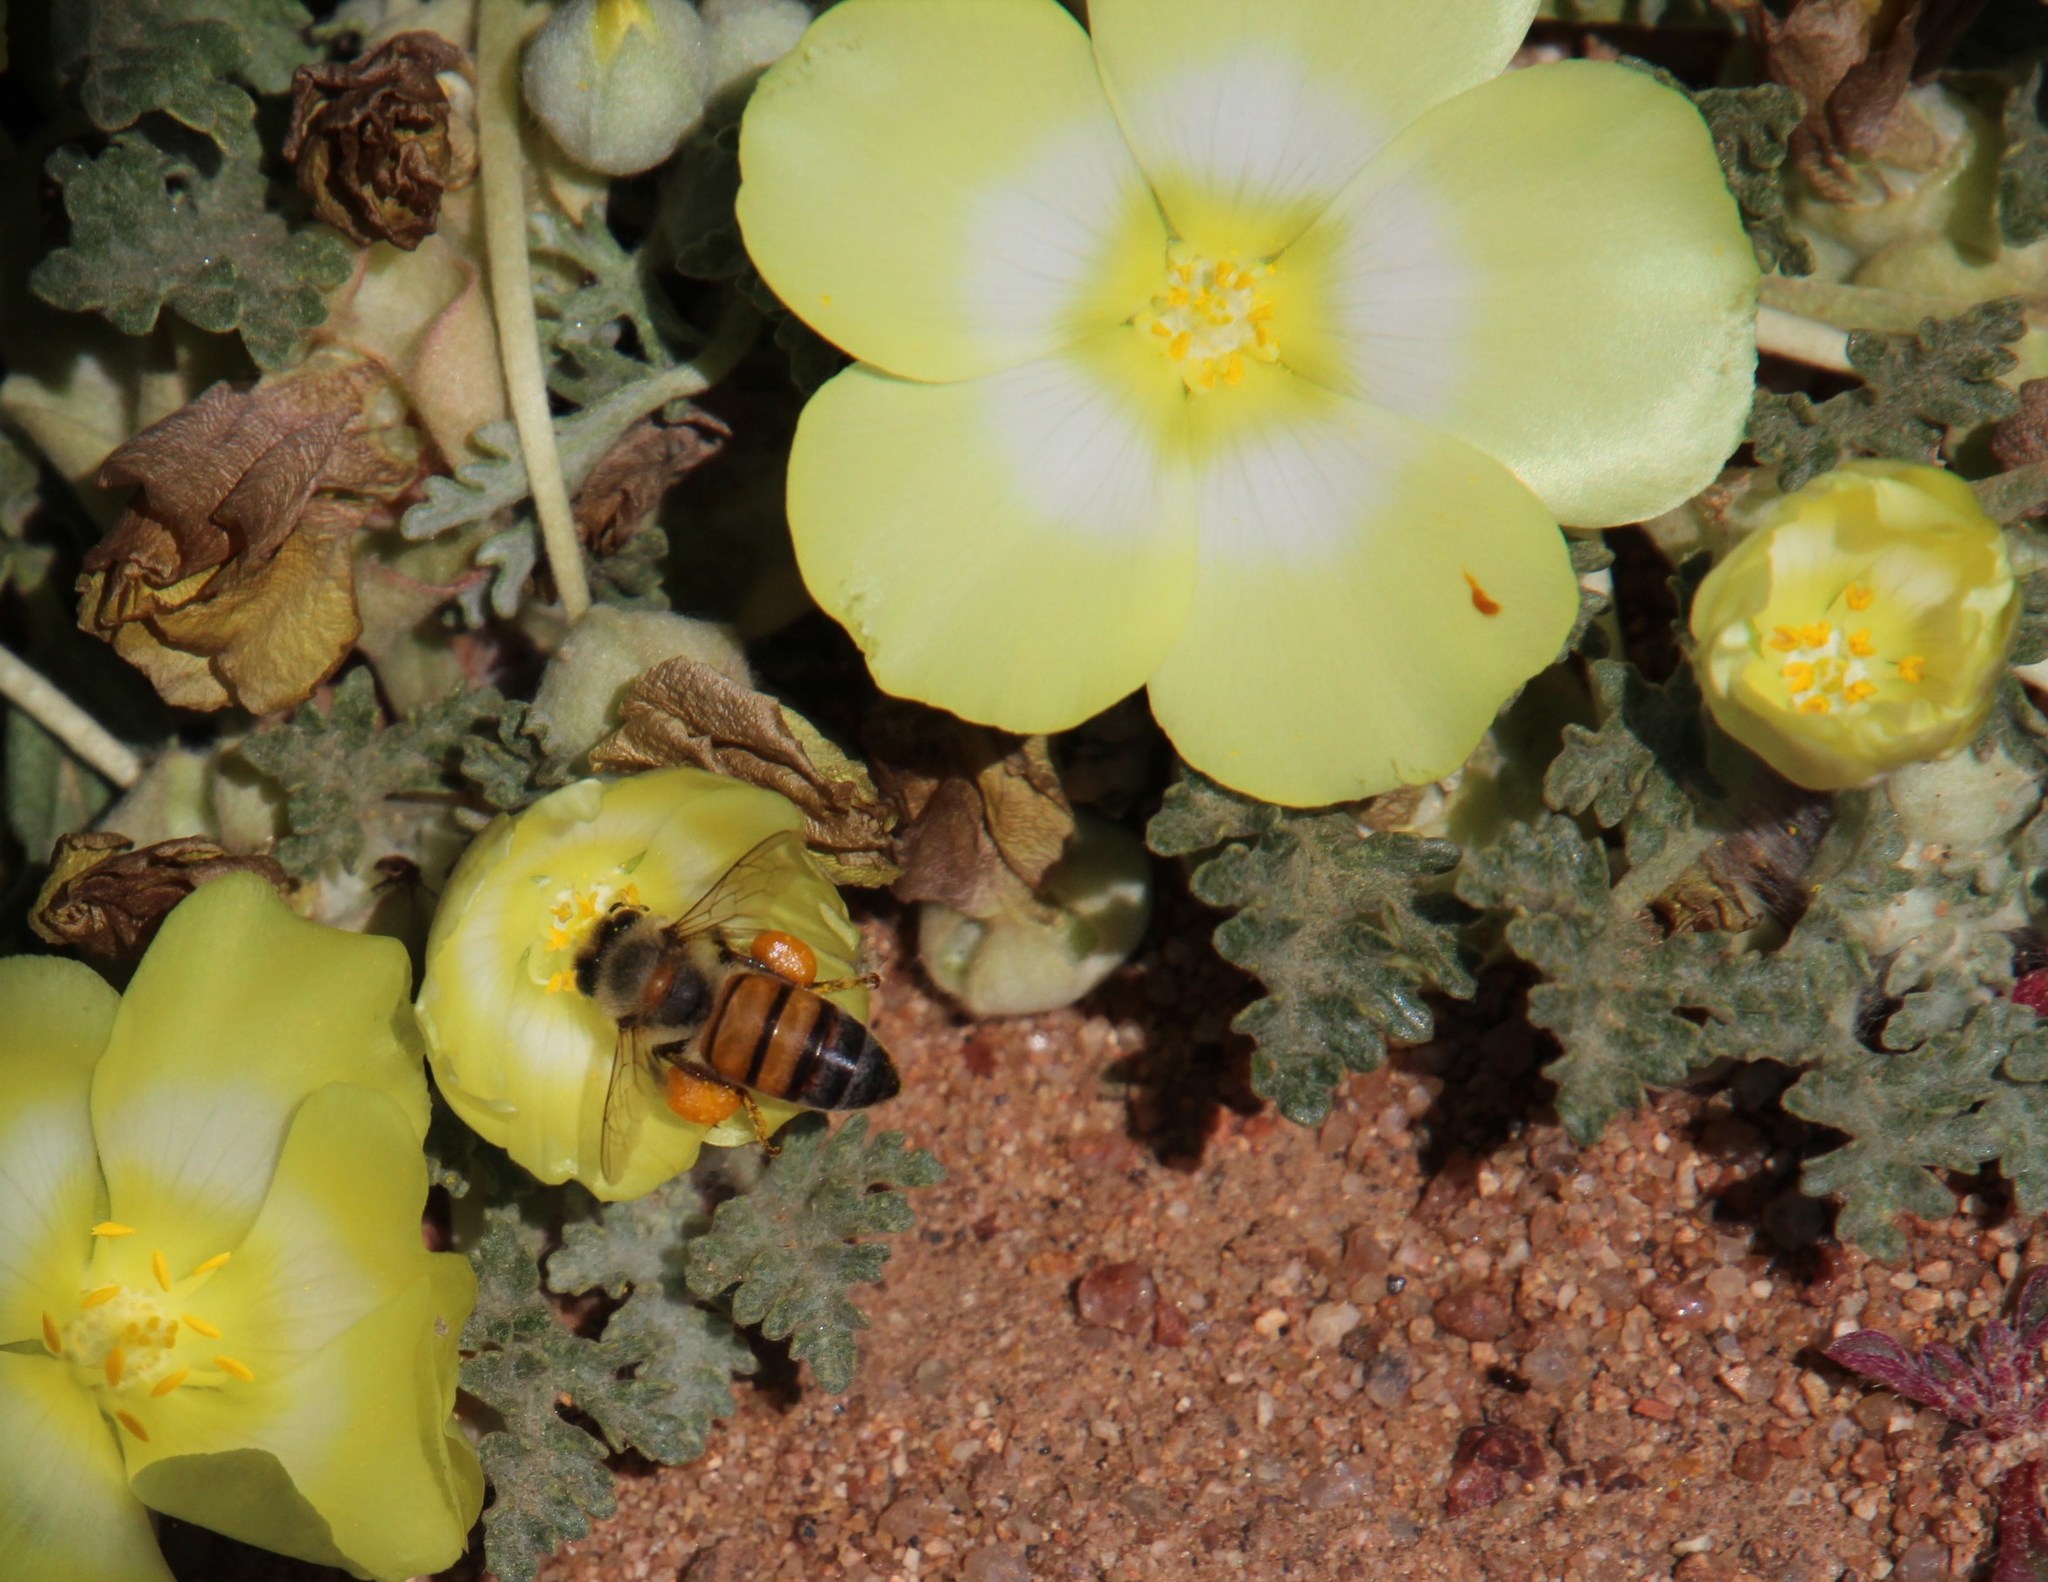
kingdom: Animalia
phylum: Arthropoda
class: Insecta
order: Hymenoptera
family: Apidae
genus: Apis
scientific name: Apis mellifera
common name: Honey bee
